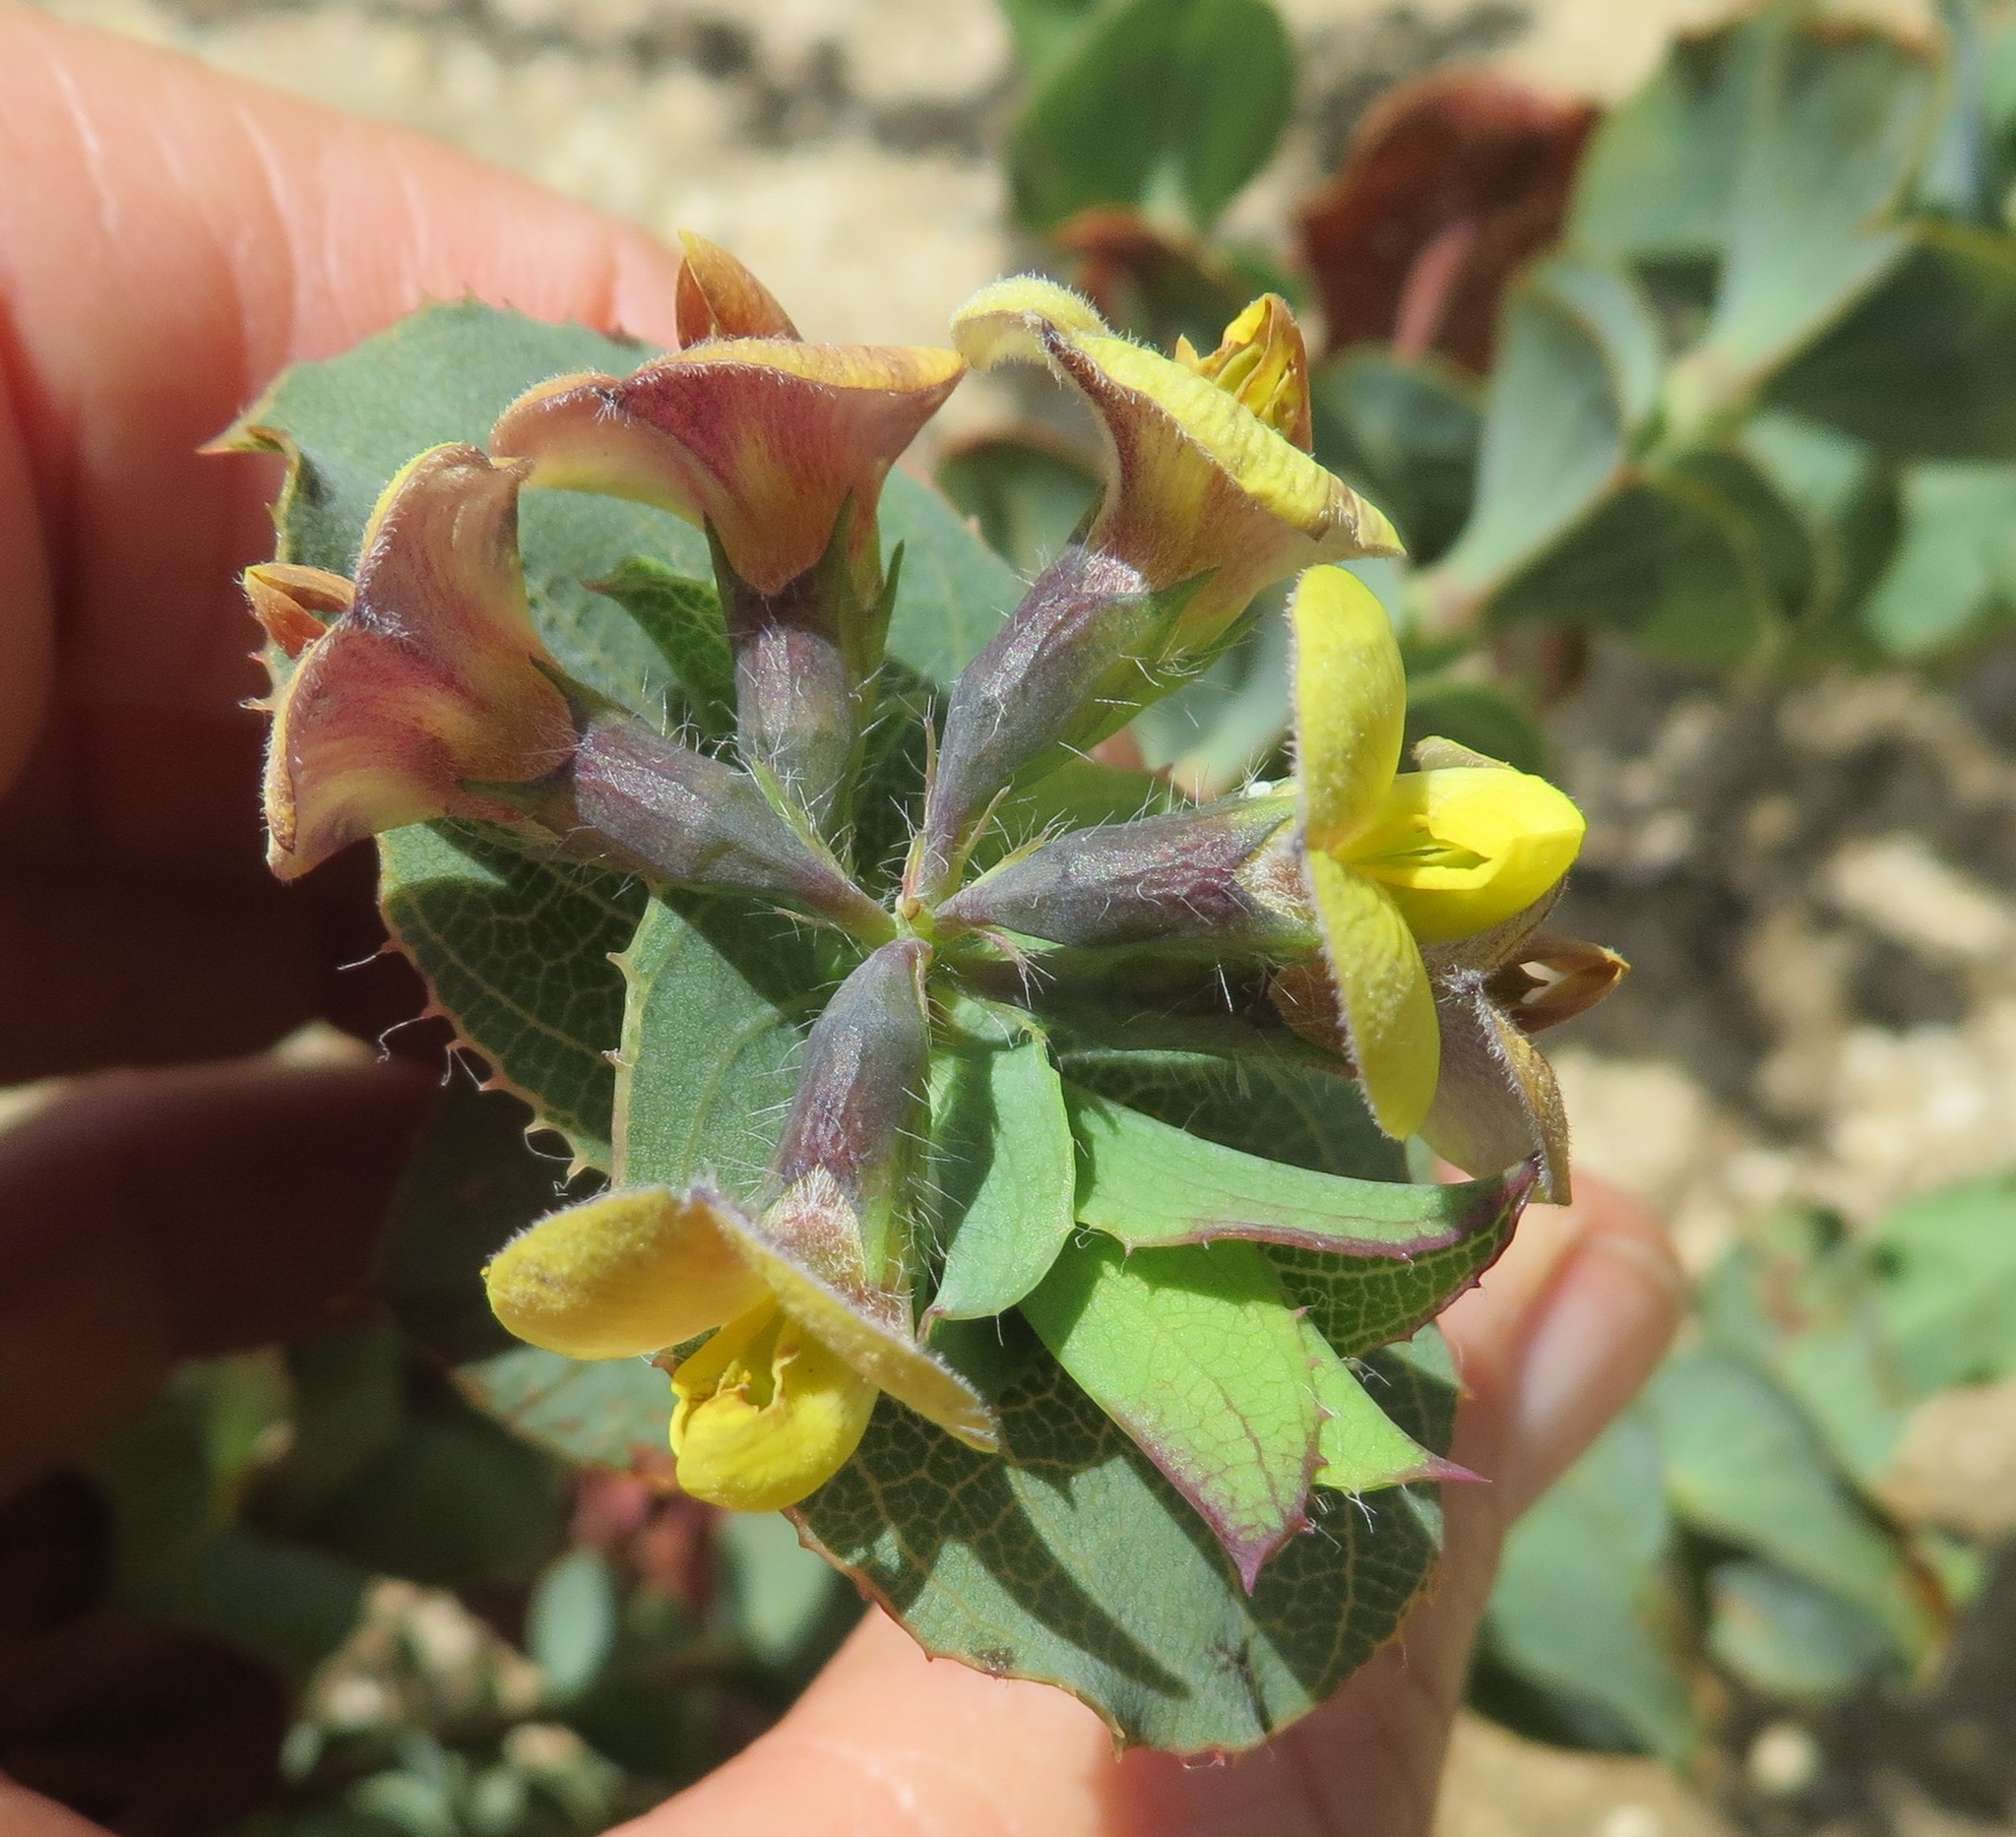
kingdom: Plantae
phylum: Tracheophyta
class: Magnoliopsida
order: Fabales
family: Fabaceae
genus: Aspalathus
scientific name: Aspalathus perfoliata
